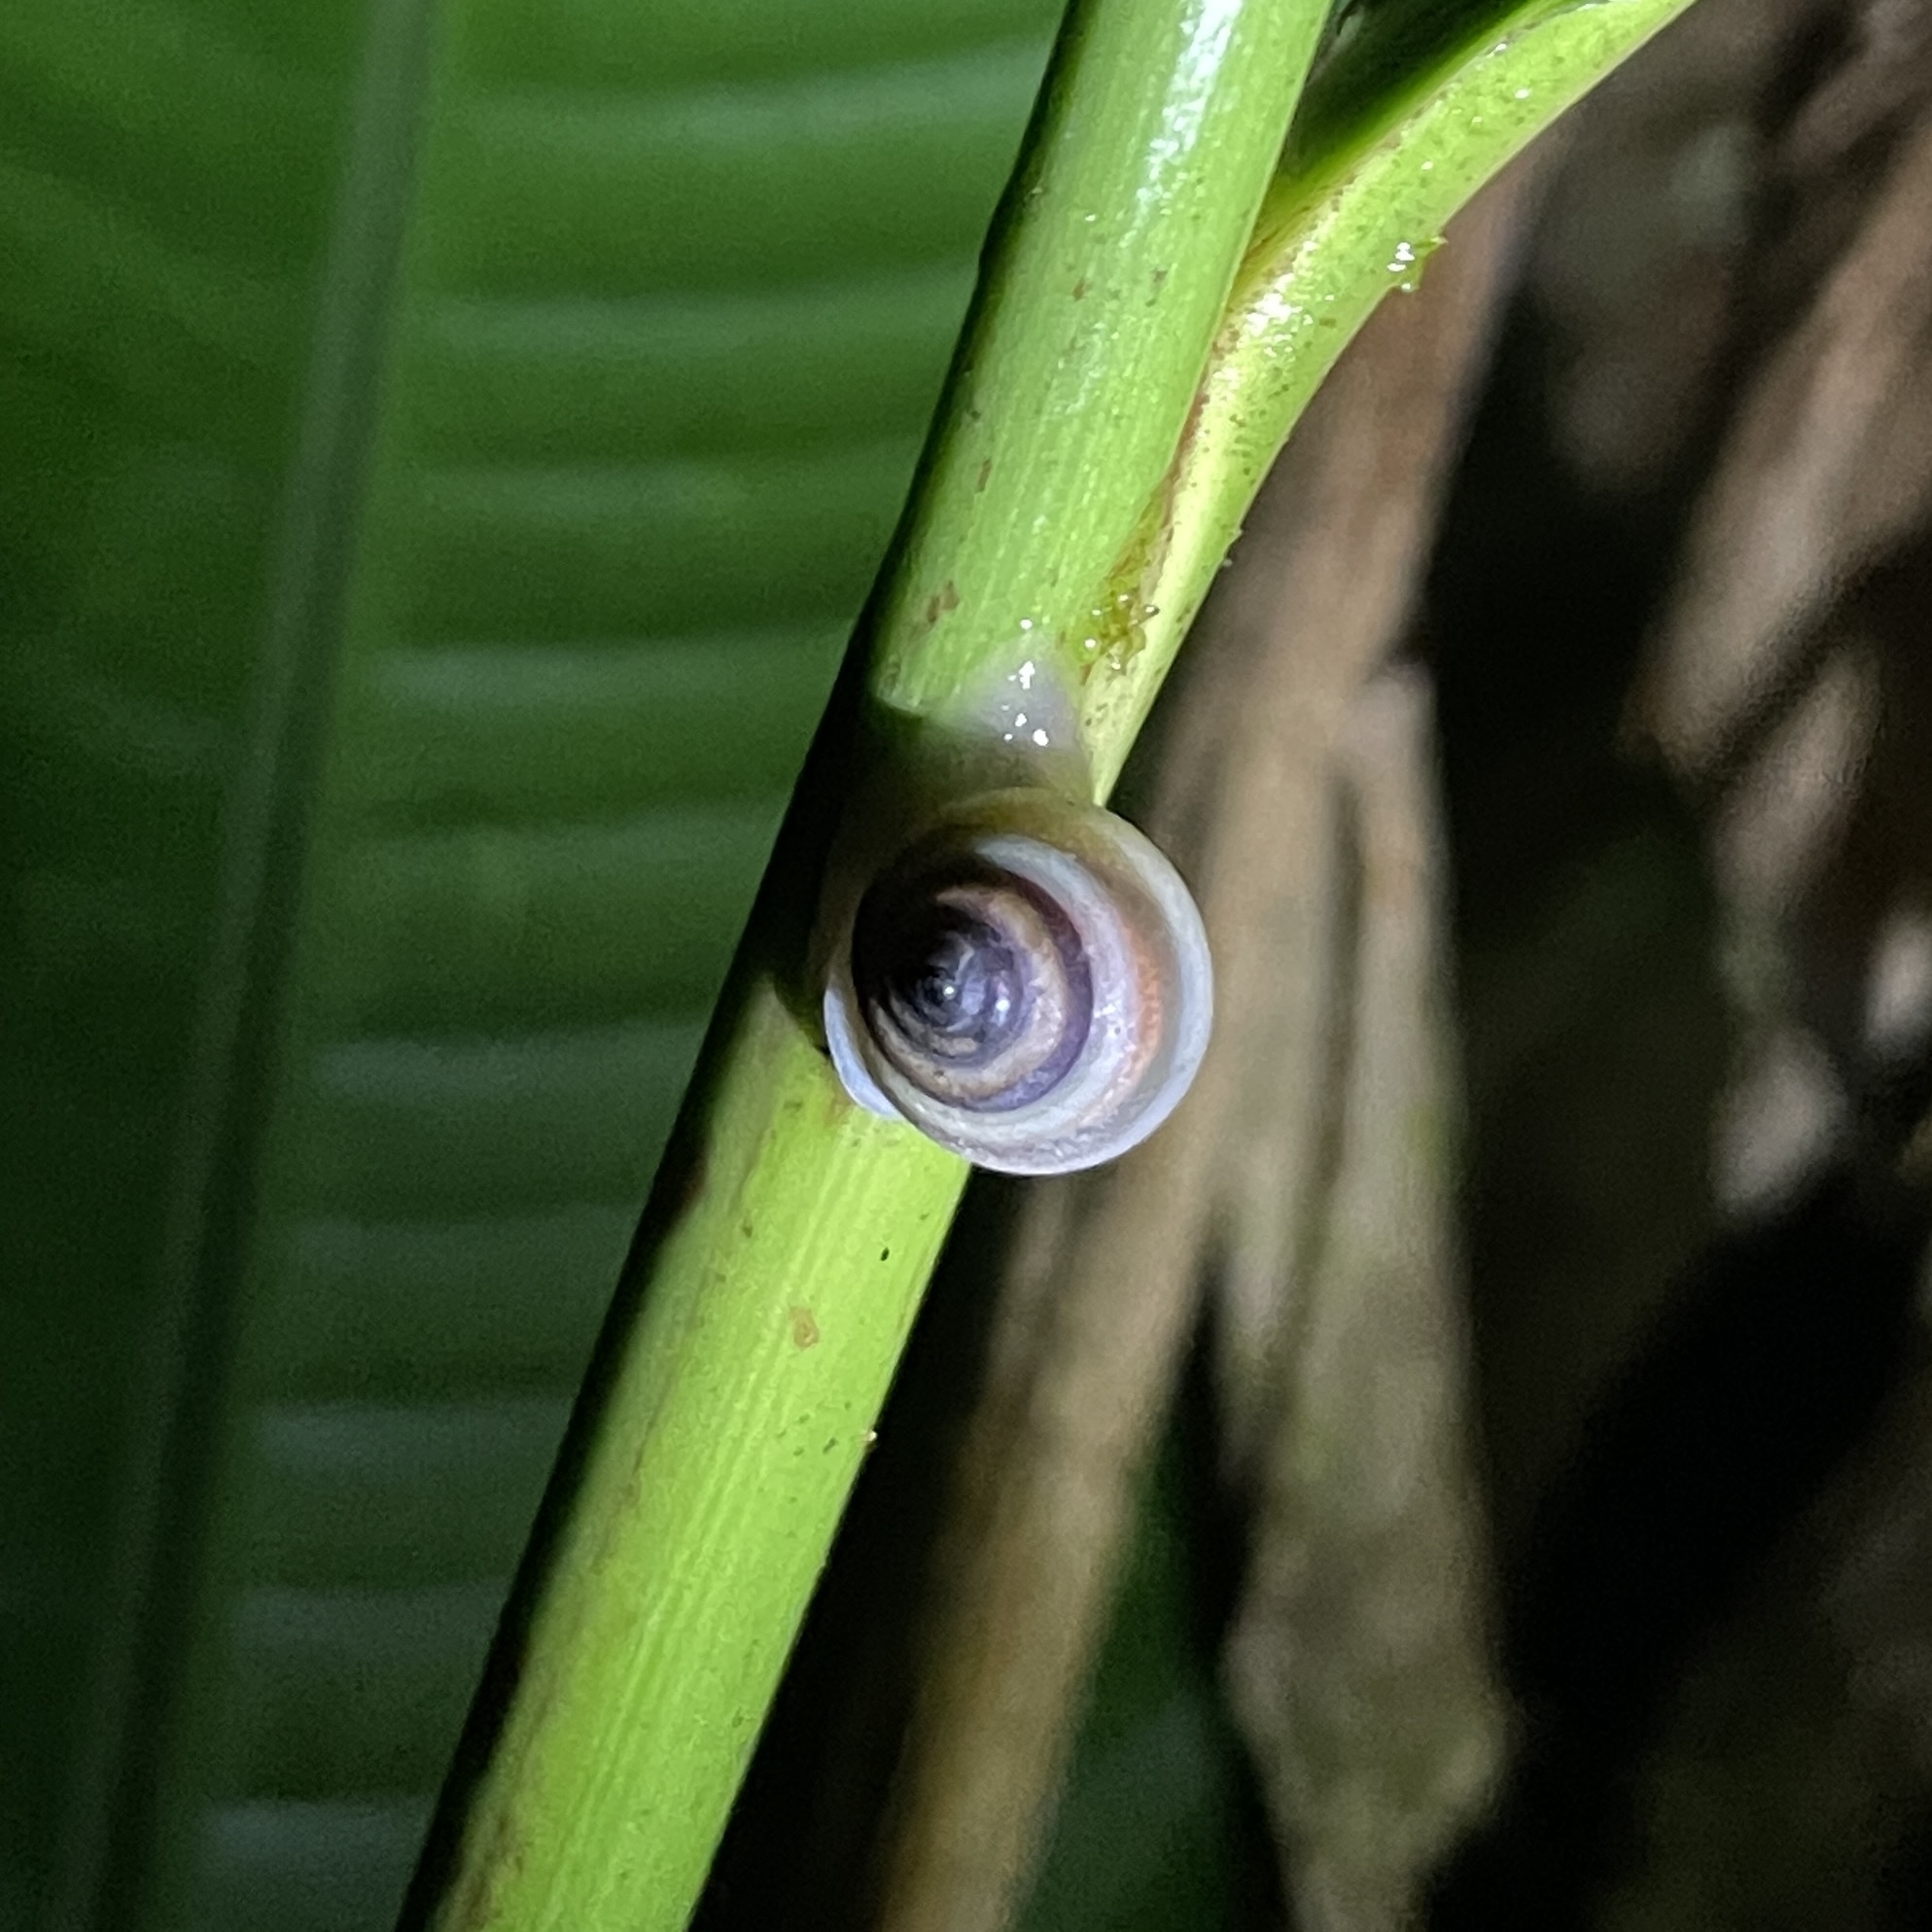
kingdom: Animalia
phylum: Mollusca
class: Gastropoda
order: Cycloneritida
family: Helicinidae
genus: Helicina
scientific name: Helicina nemoralis
